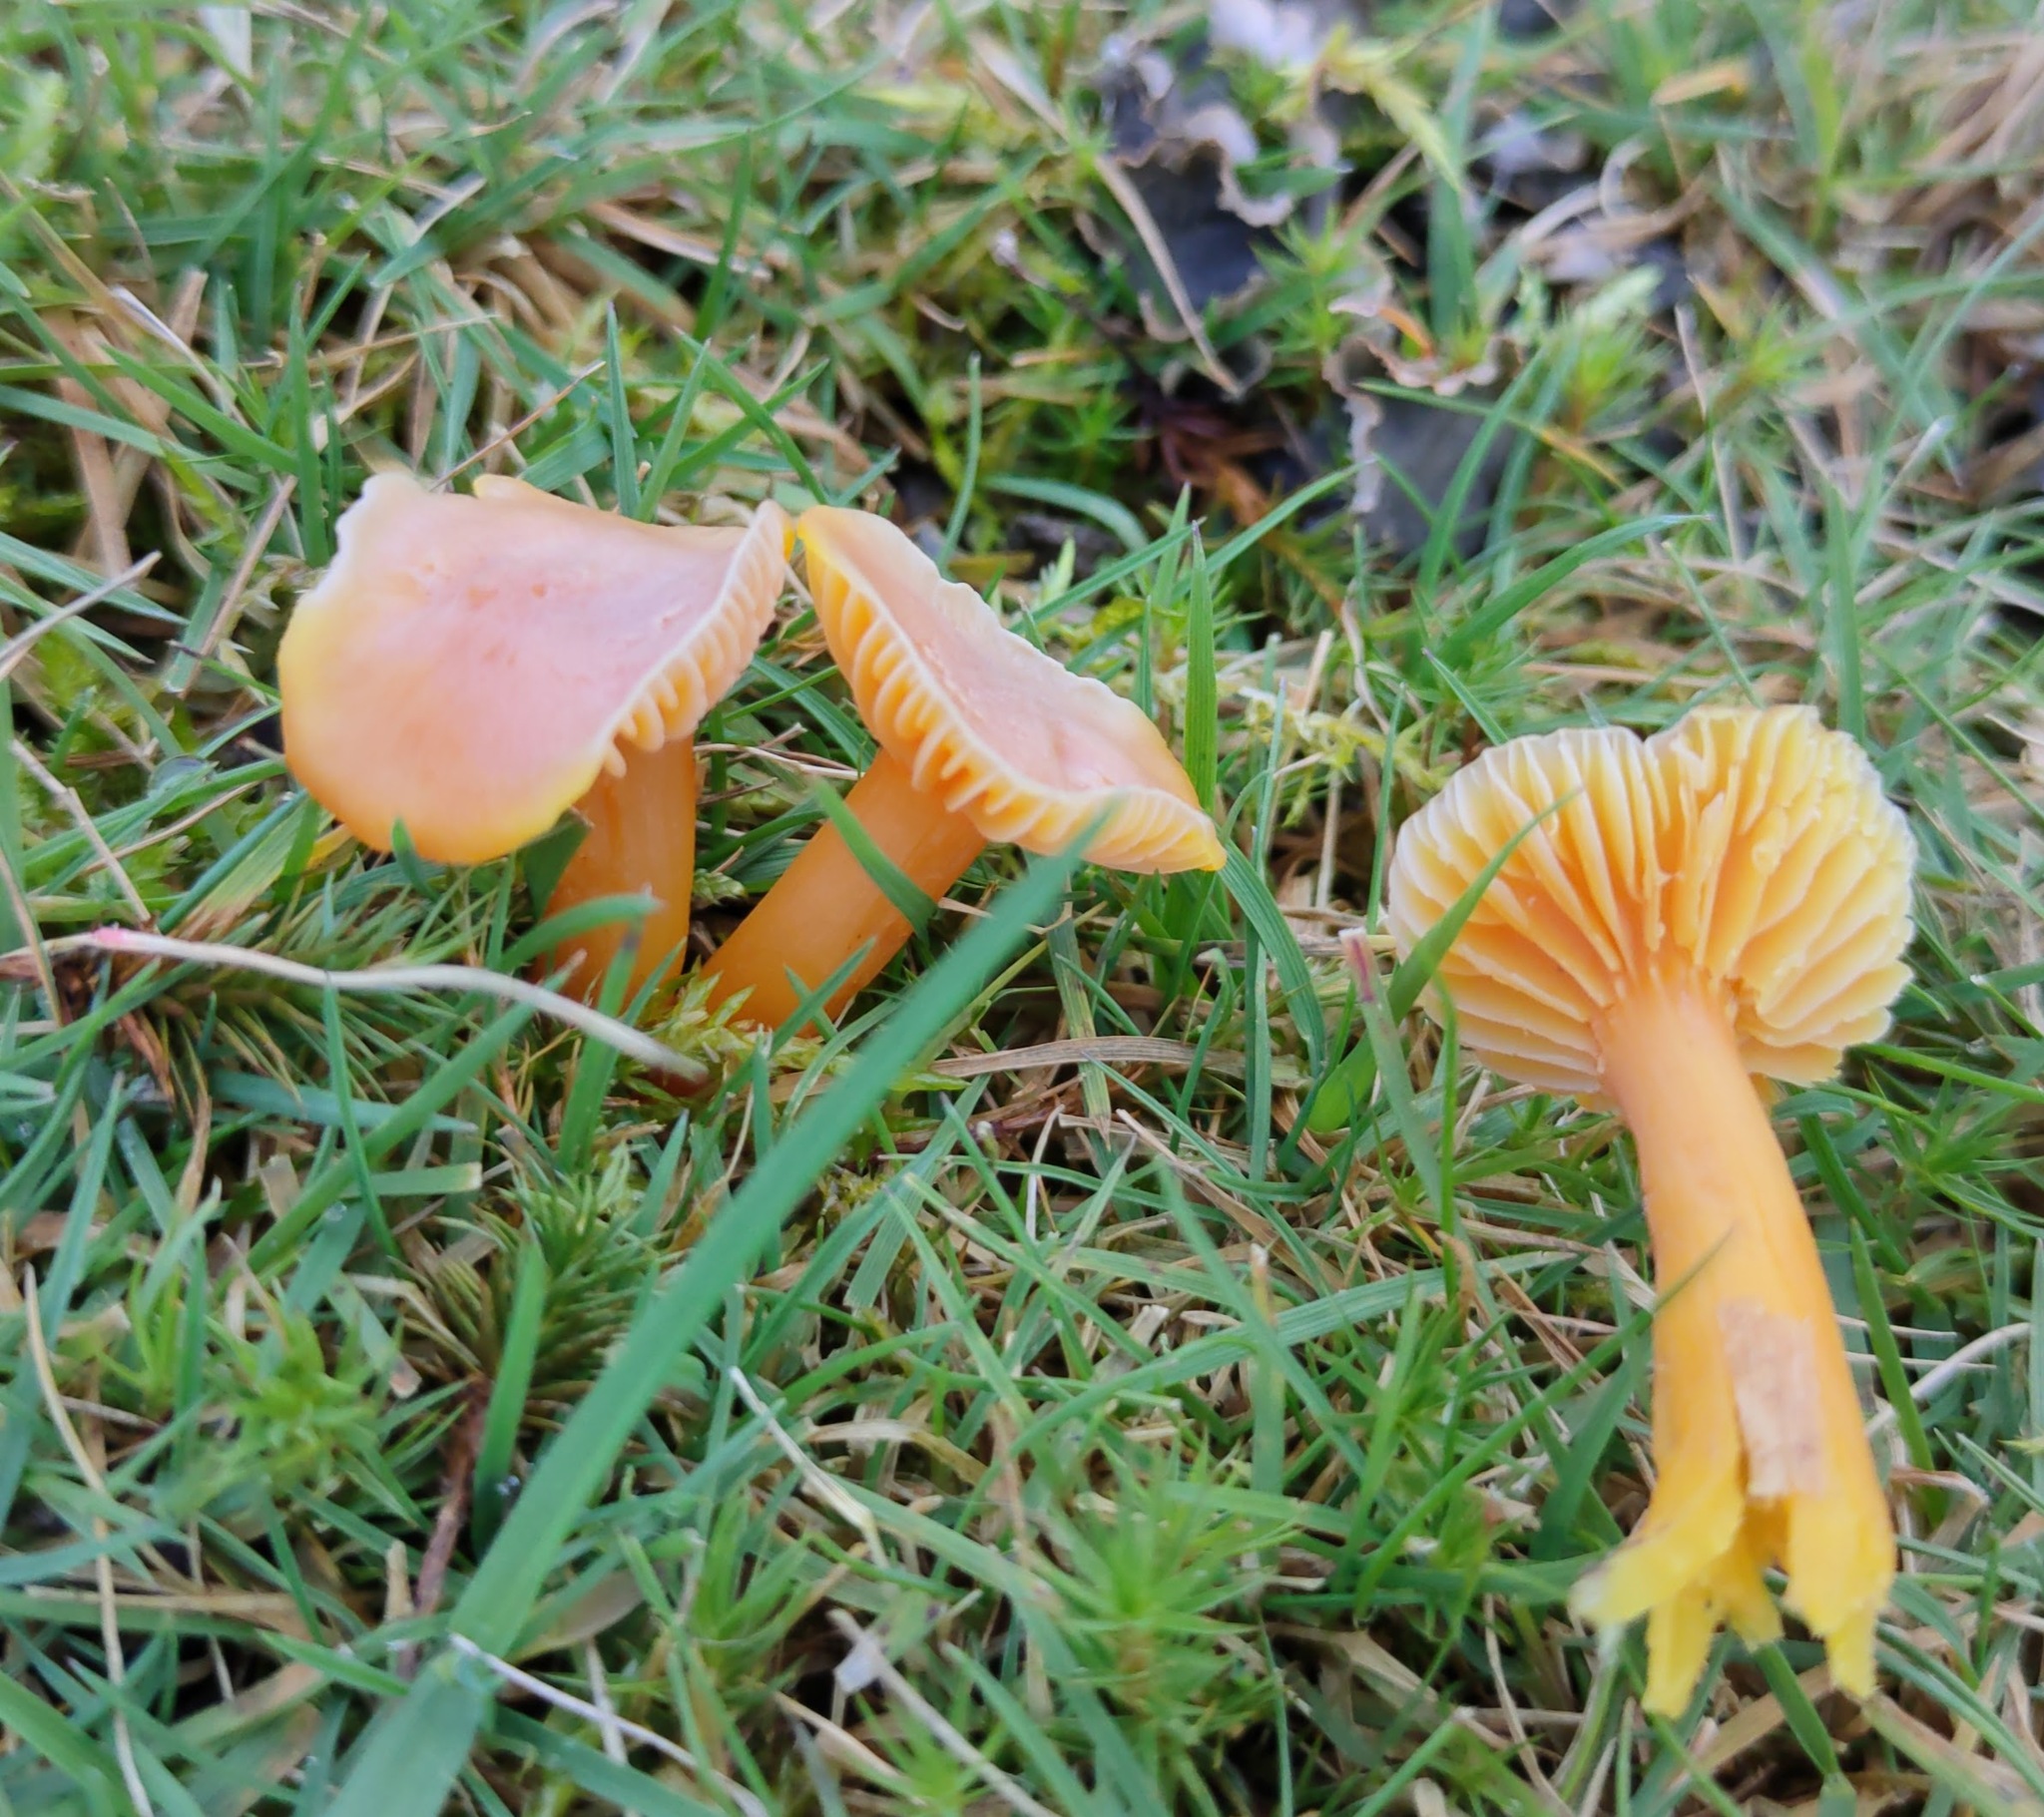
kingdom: Fungi
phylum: Basidiomycota
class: Agaricomycetes
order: Agaricales
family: Hygrophoraceae
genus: Hygrocybe
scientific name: Hygrocybe reidii
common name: Honey waxcap
